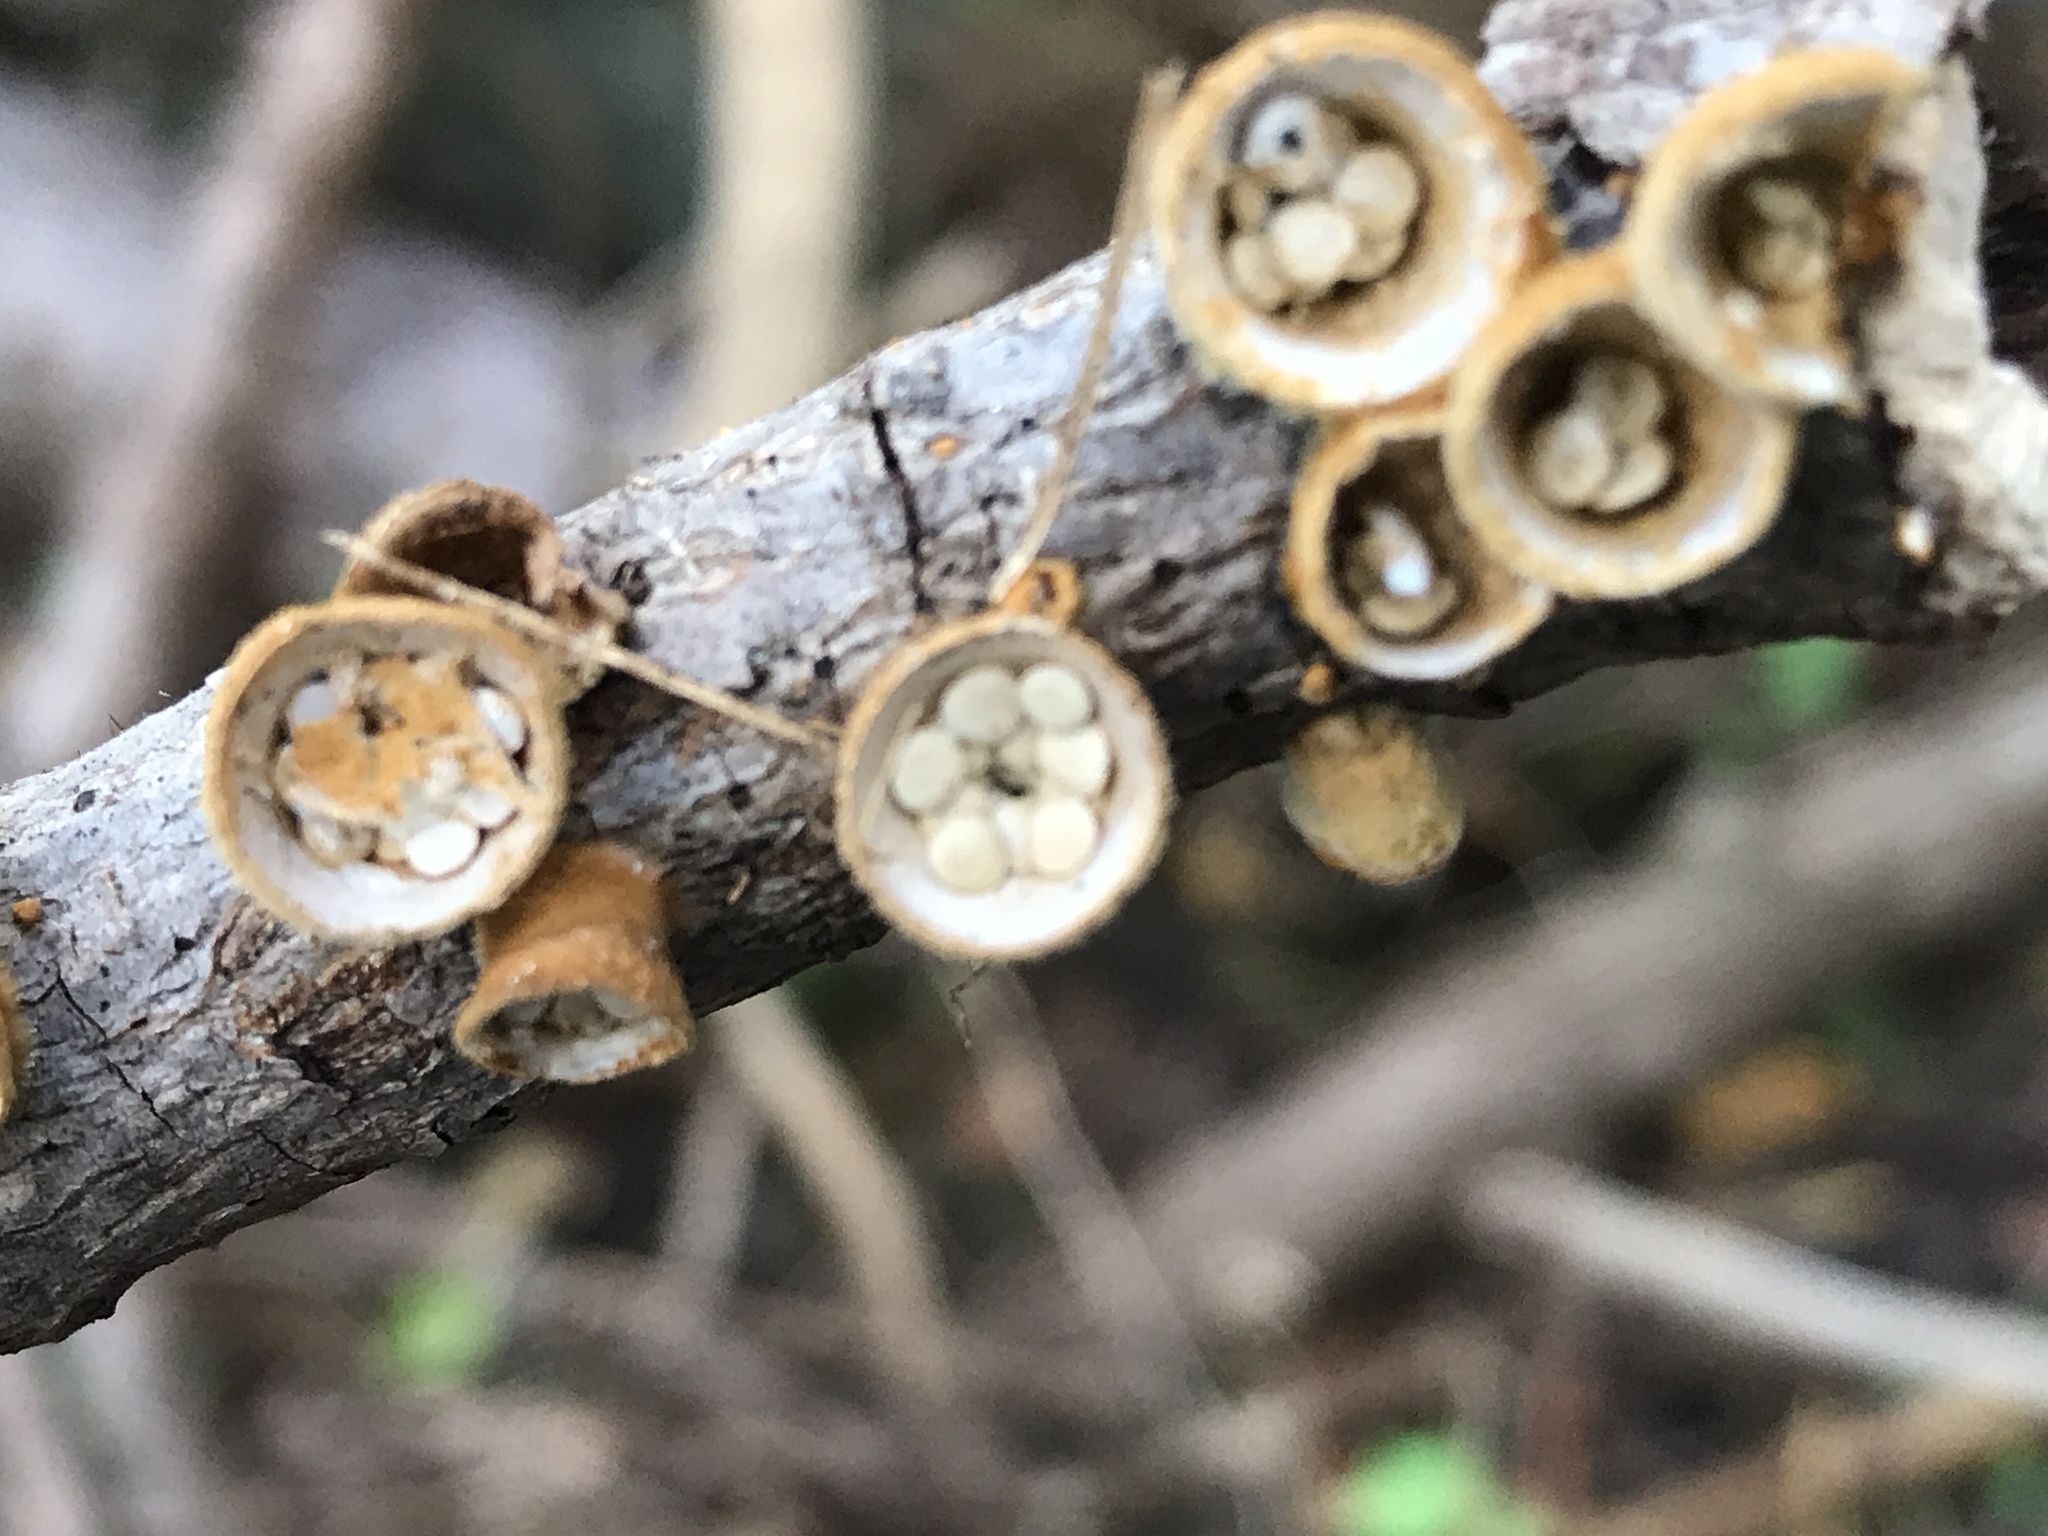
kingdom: Fungi
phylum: Basidiomycota
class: Agaricomycetes
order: Agaricales
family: Nidulariaceae
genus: Crucibulum
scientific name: Crucibulum laeve
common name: Common bird's nest
